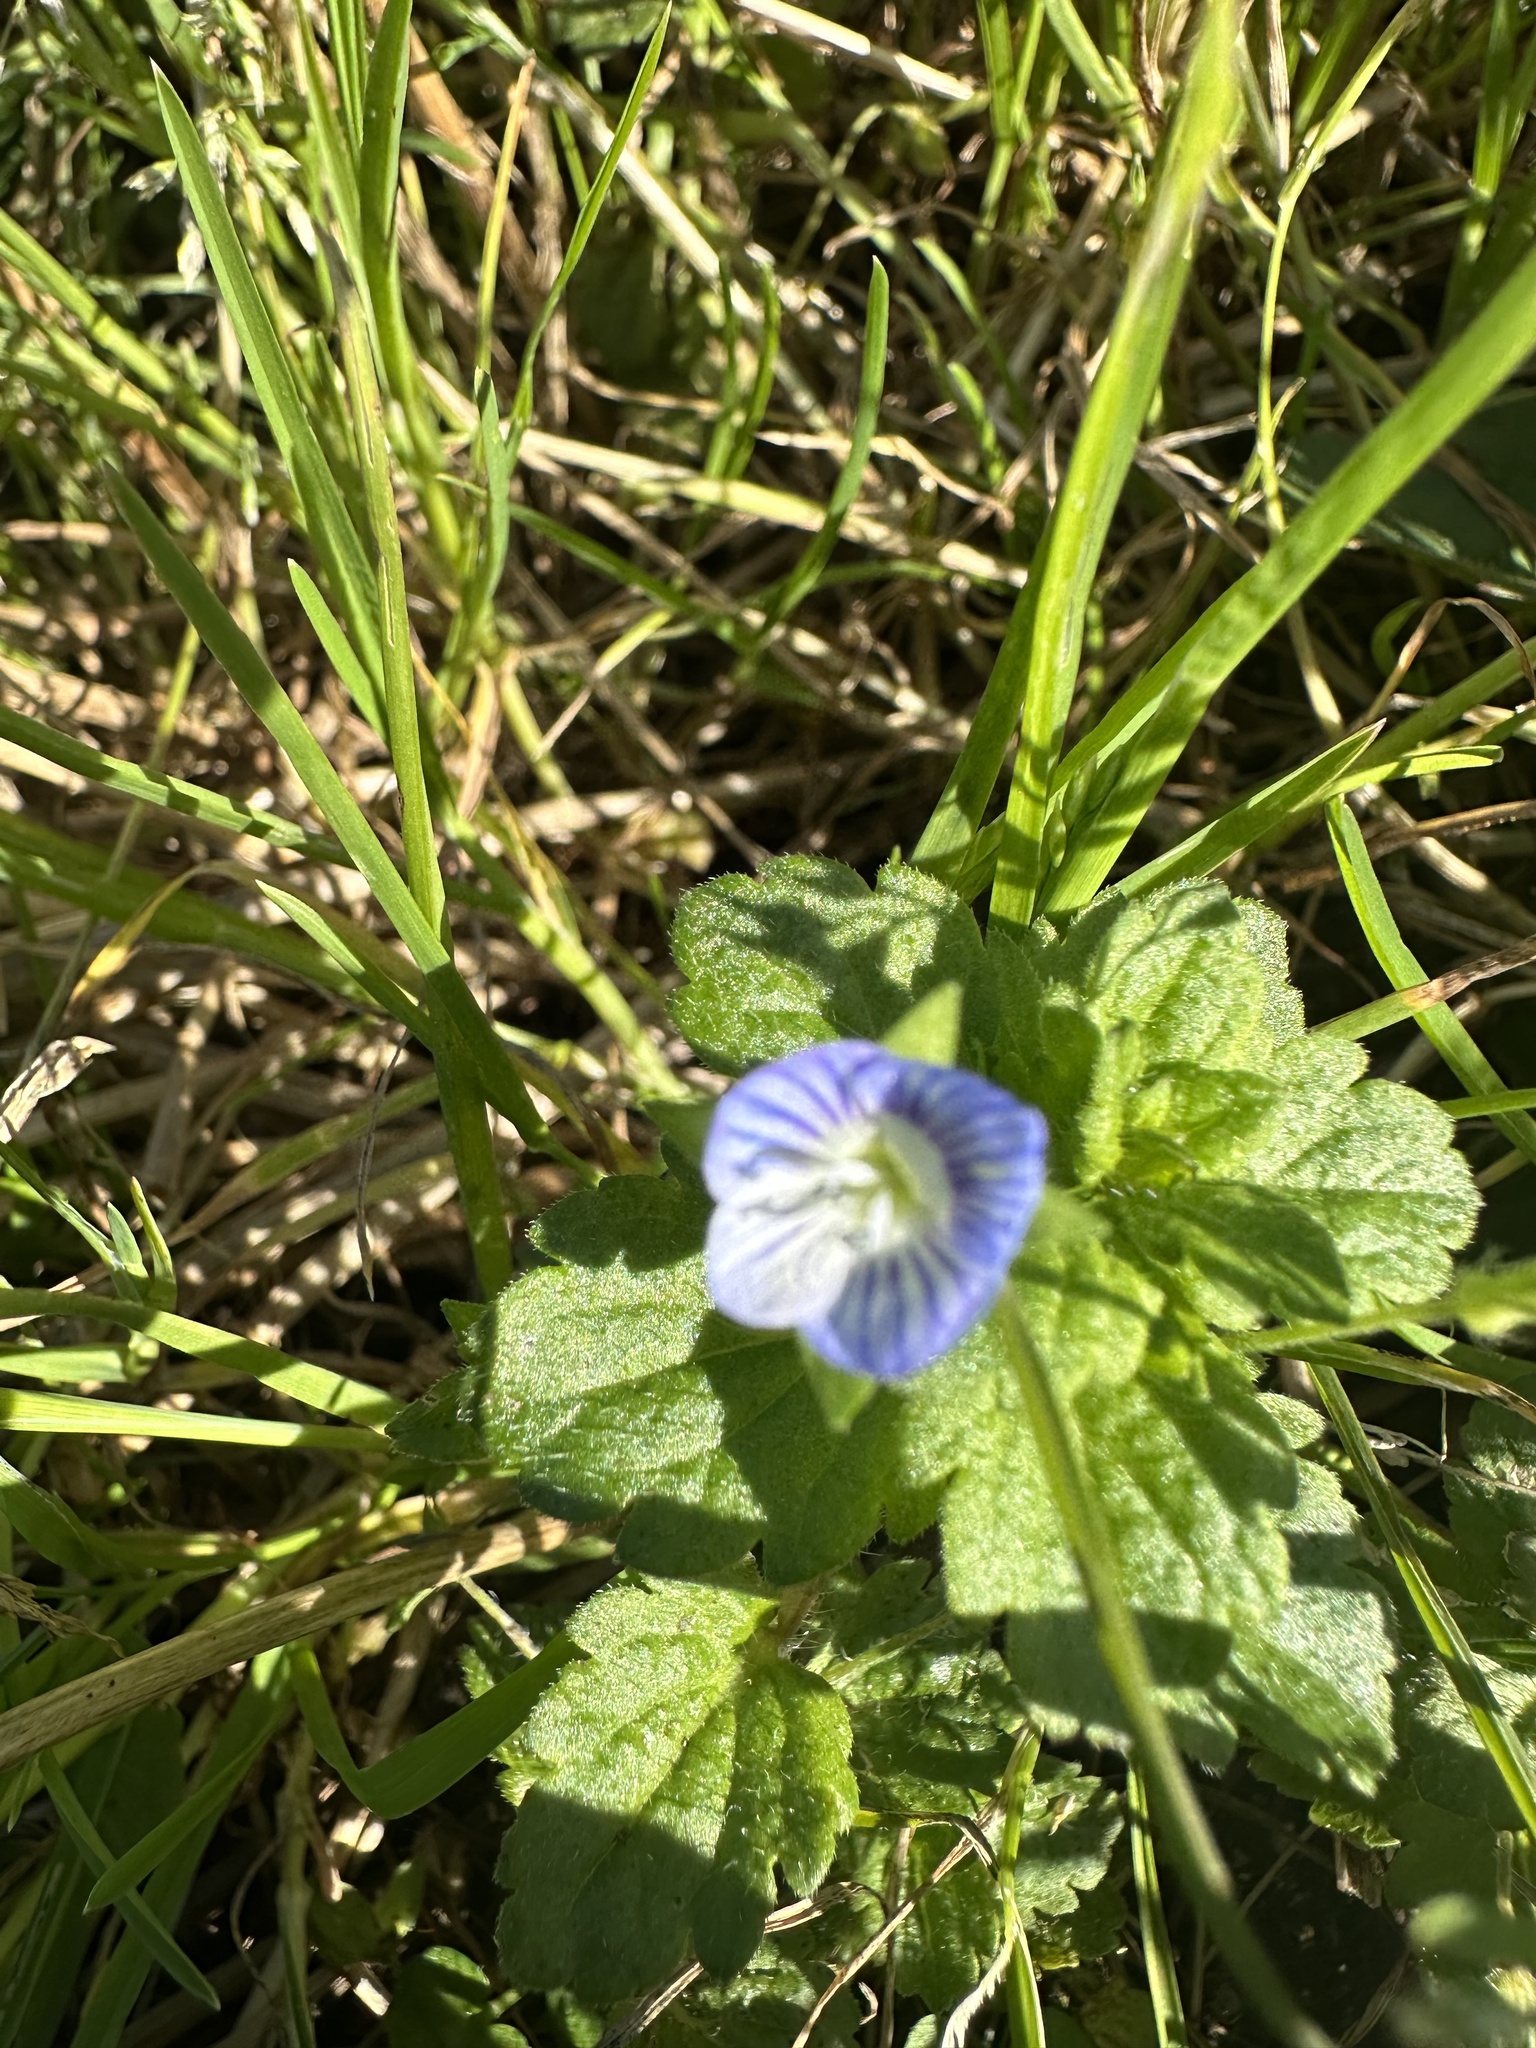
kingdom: Plantae
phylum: Tracheophyta
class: Magnoliopsida
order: Lamiales
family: Plantaginaceae
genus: Veronica
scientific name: Veronica persica
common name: Common field-speedwell
